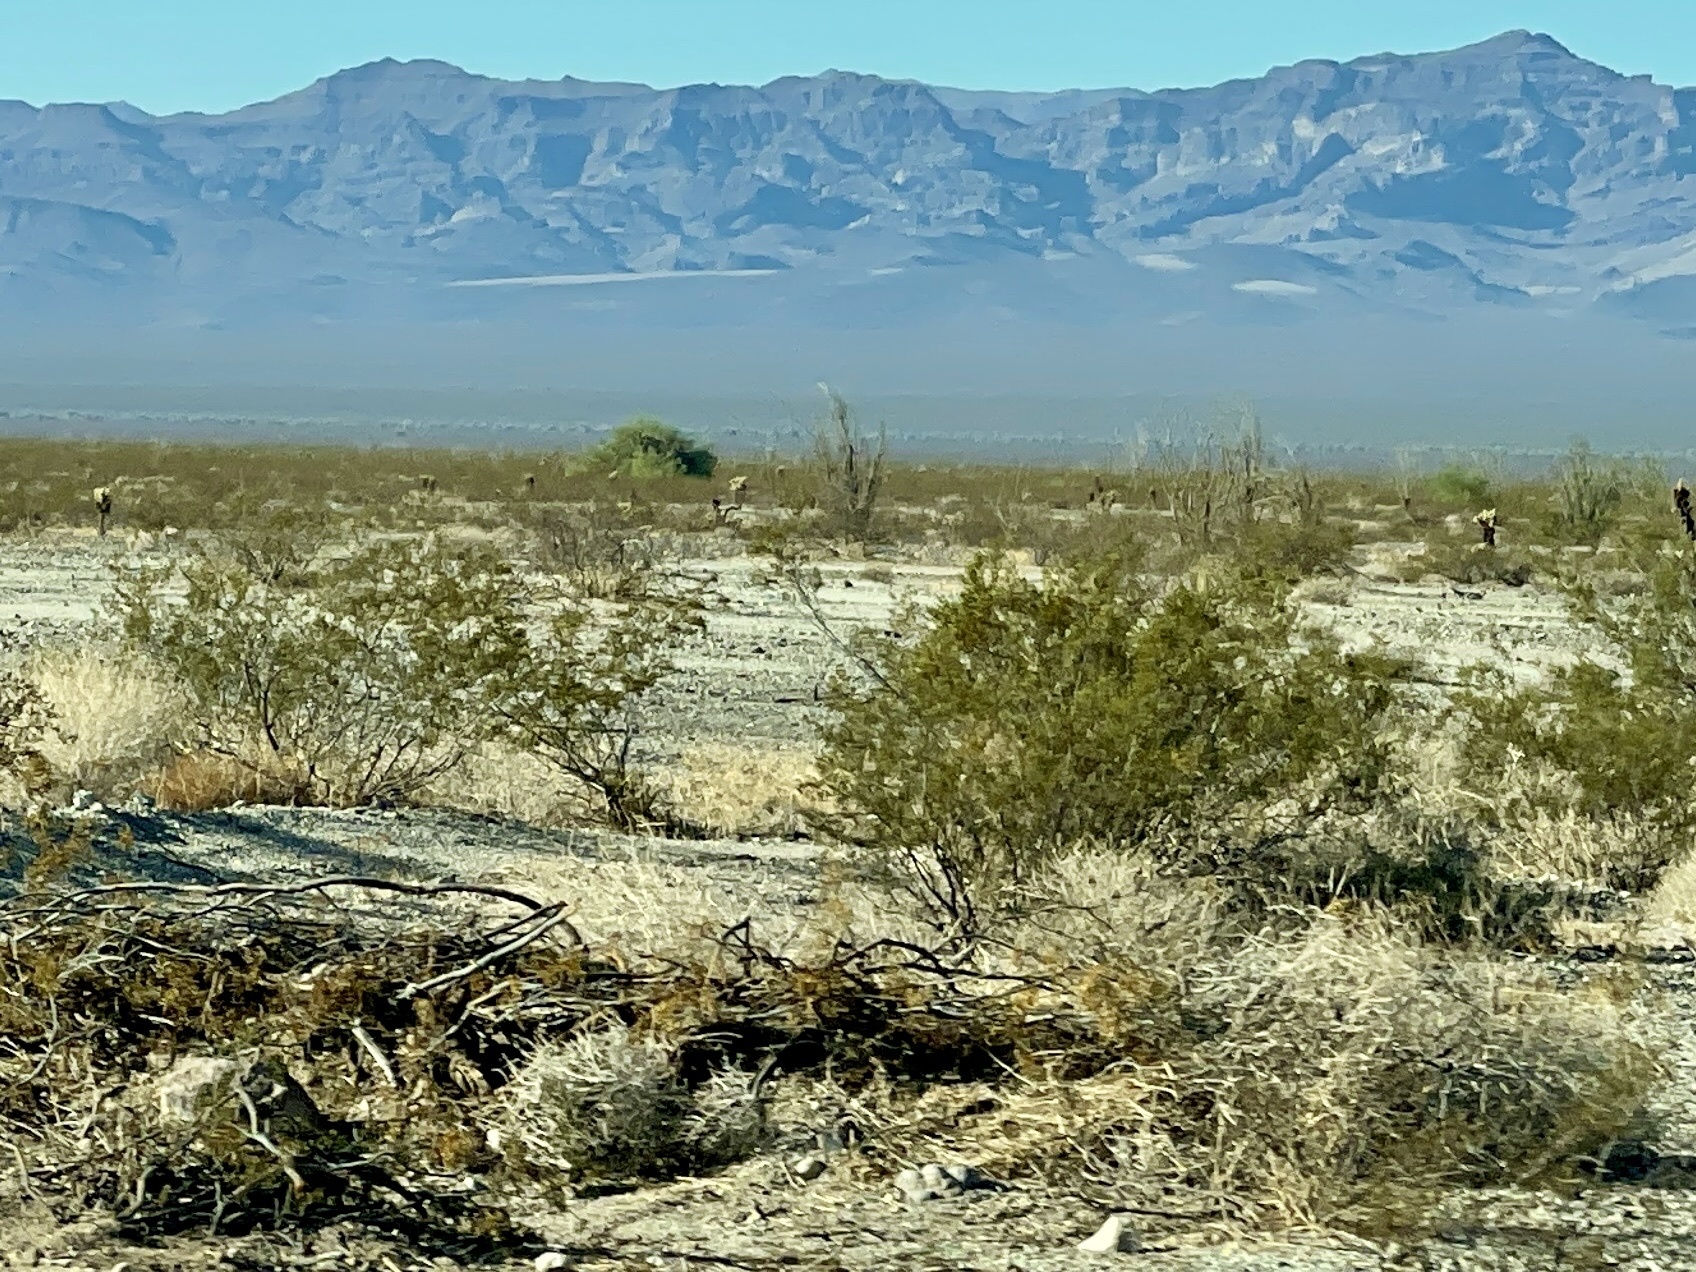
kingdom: Plantae
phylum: Tracheophyta
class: Magnoliopsida
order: Zygophyllales
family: Zygophyllaceae
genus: Larrea
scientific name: Larrea tridentata
